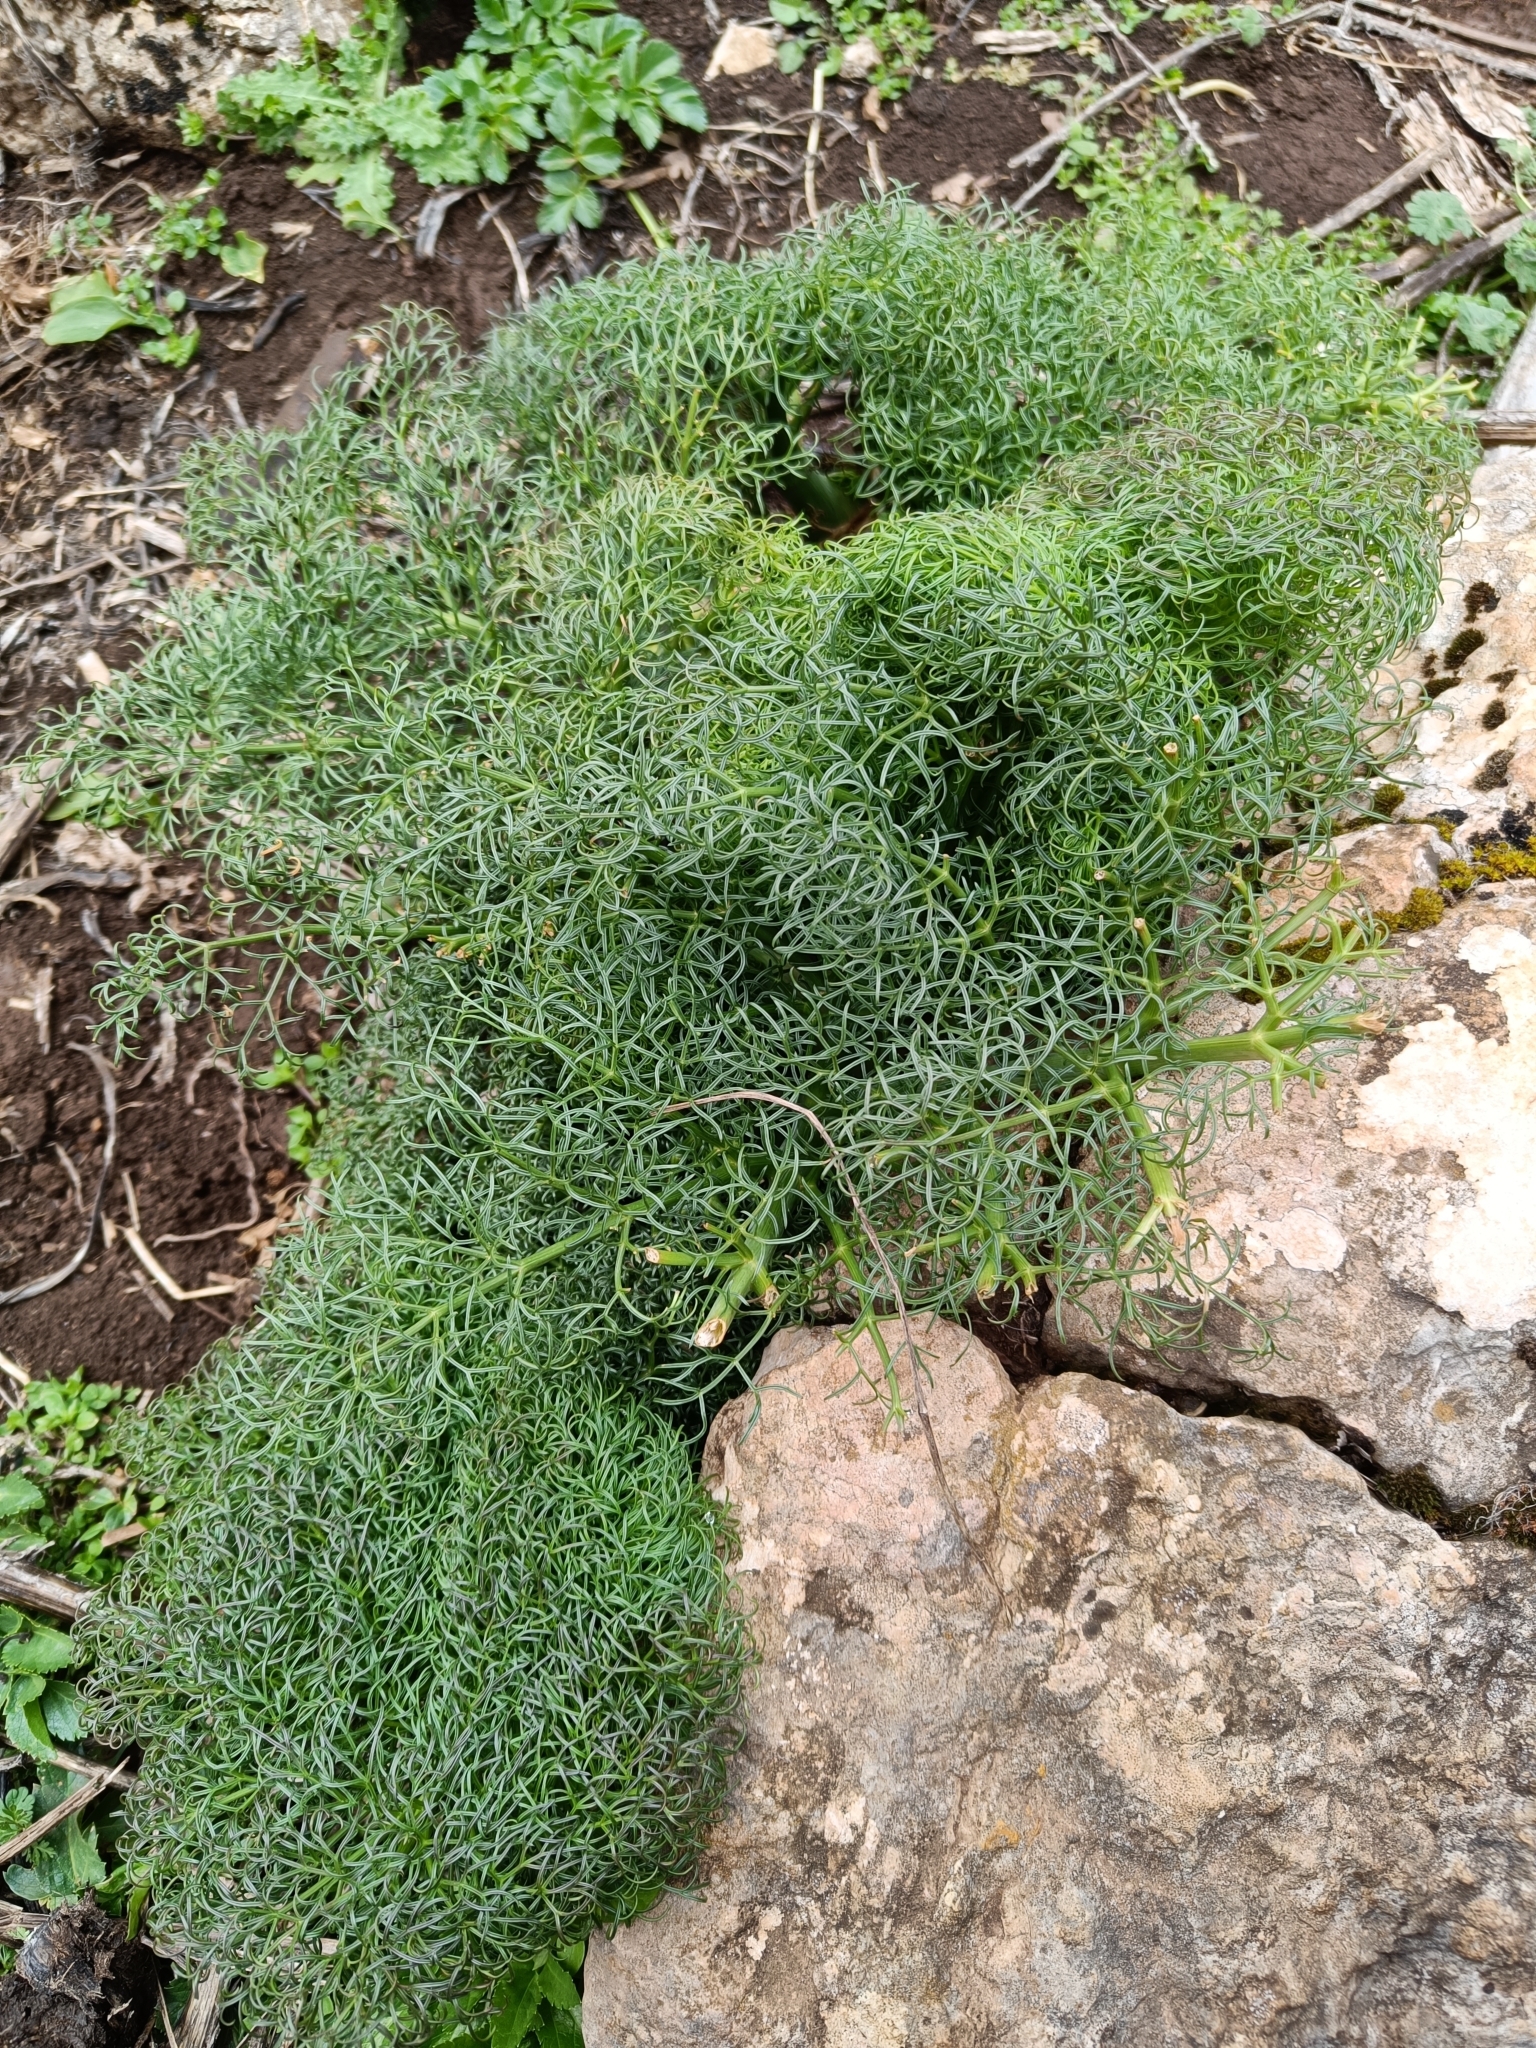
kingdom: Plantae
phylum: Tracheophyta
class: Magnoliopsida
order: Apiales
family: Apiaceae
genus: Ferula
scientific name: Ferula communis
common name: Giant fennel
